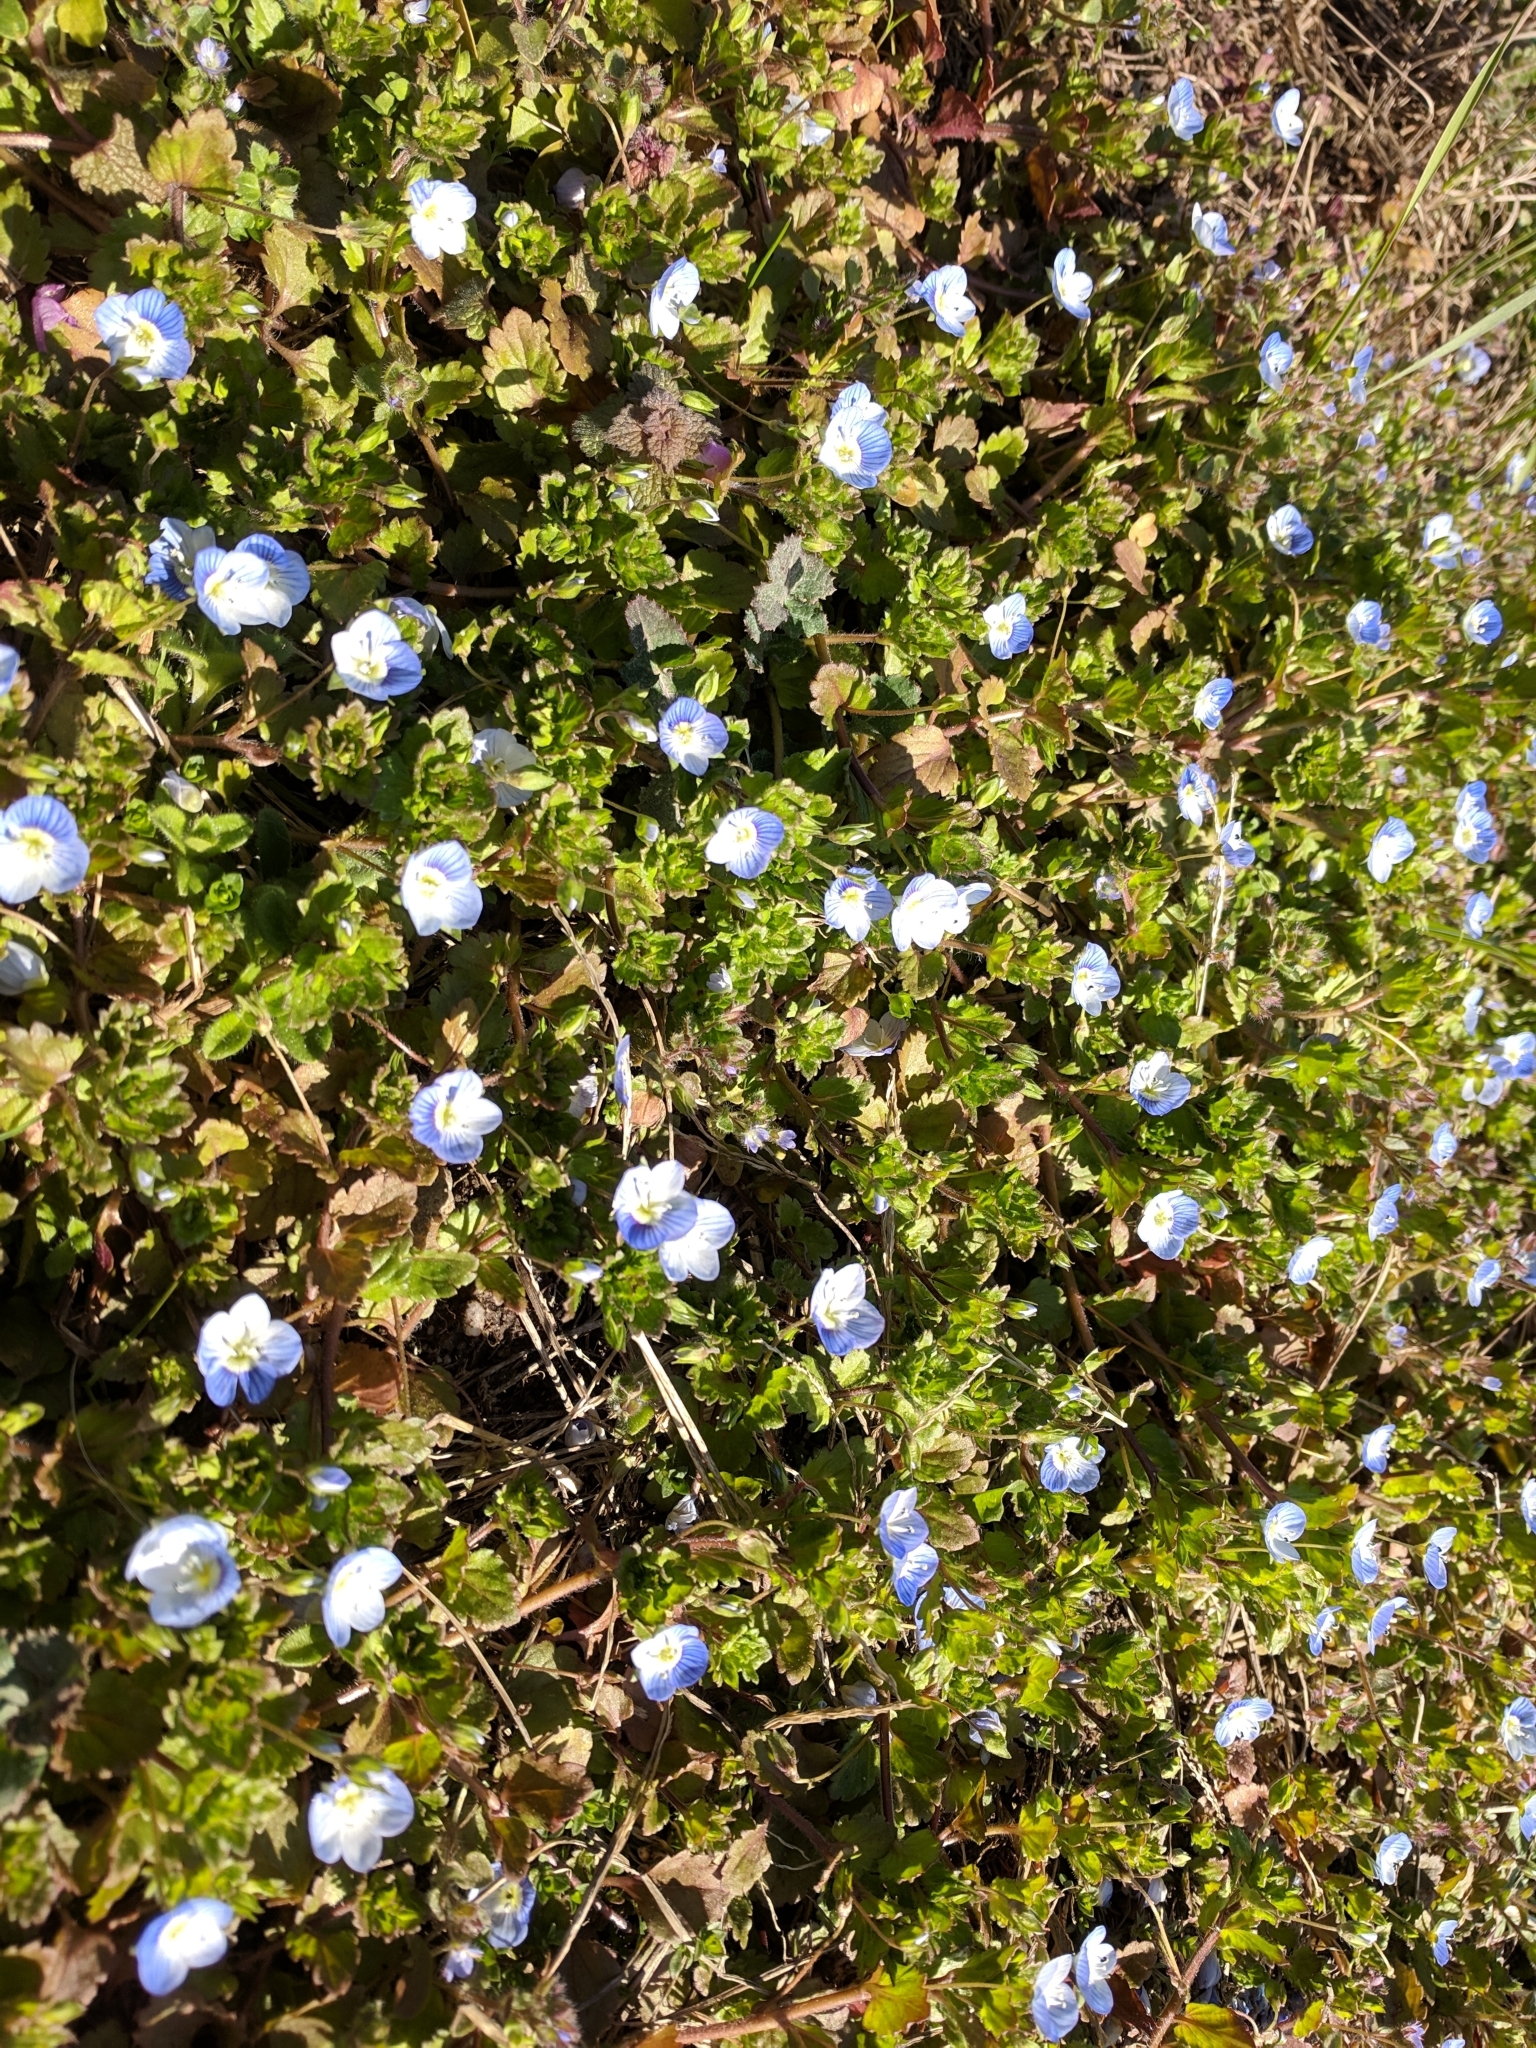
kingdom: Plantae
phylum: Tracheophyta
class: Magnoliopsida
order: Lamiales
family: Plantaginaceae
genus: Veronica
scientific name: Veronica persica
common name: Common field-speedwell
